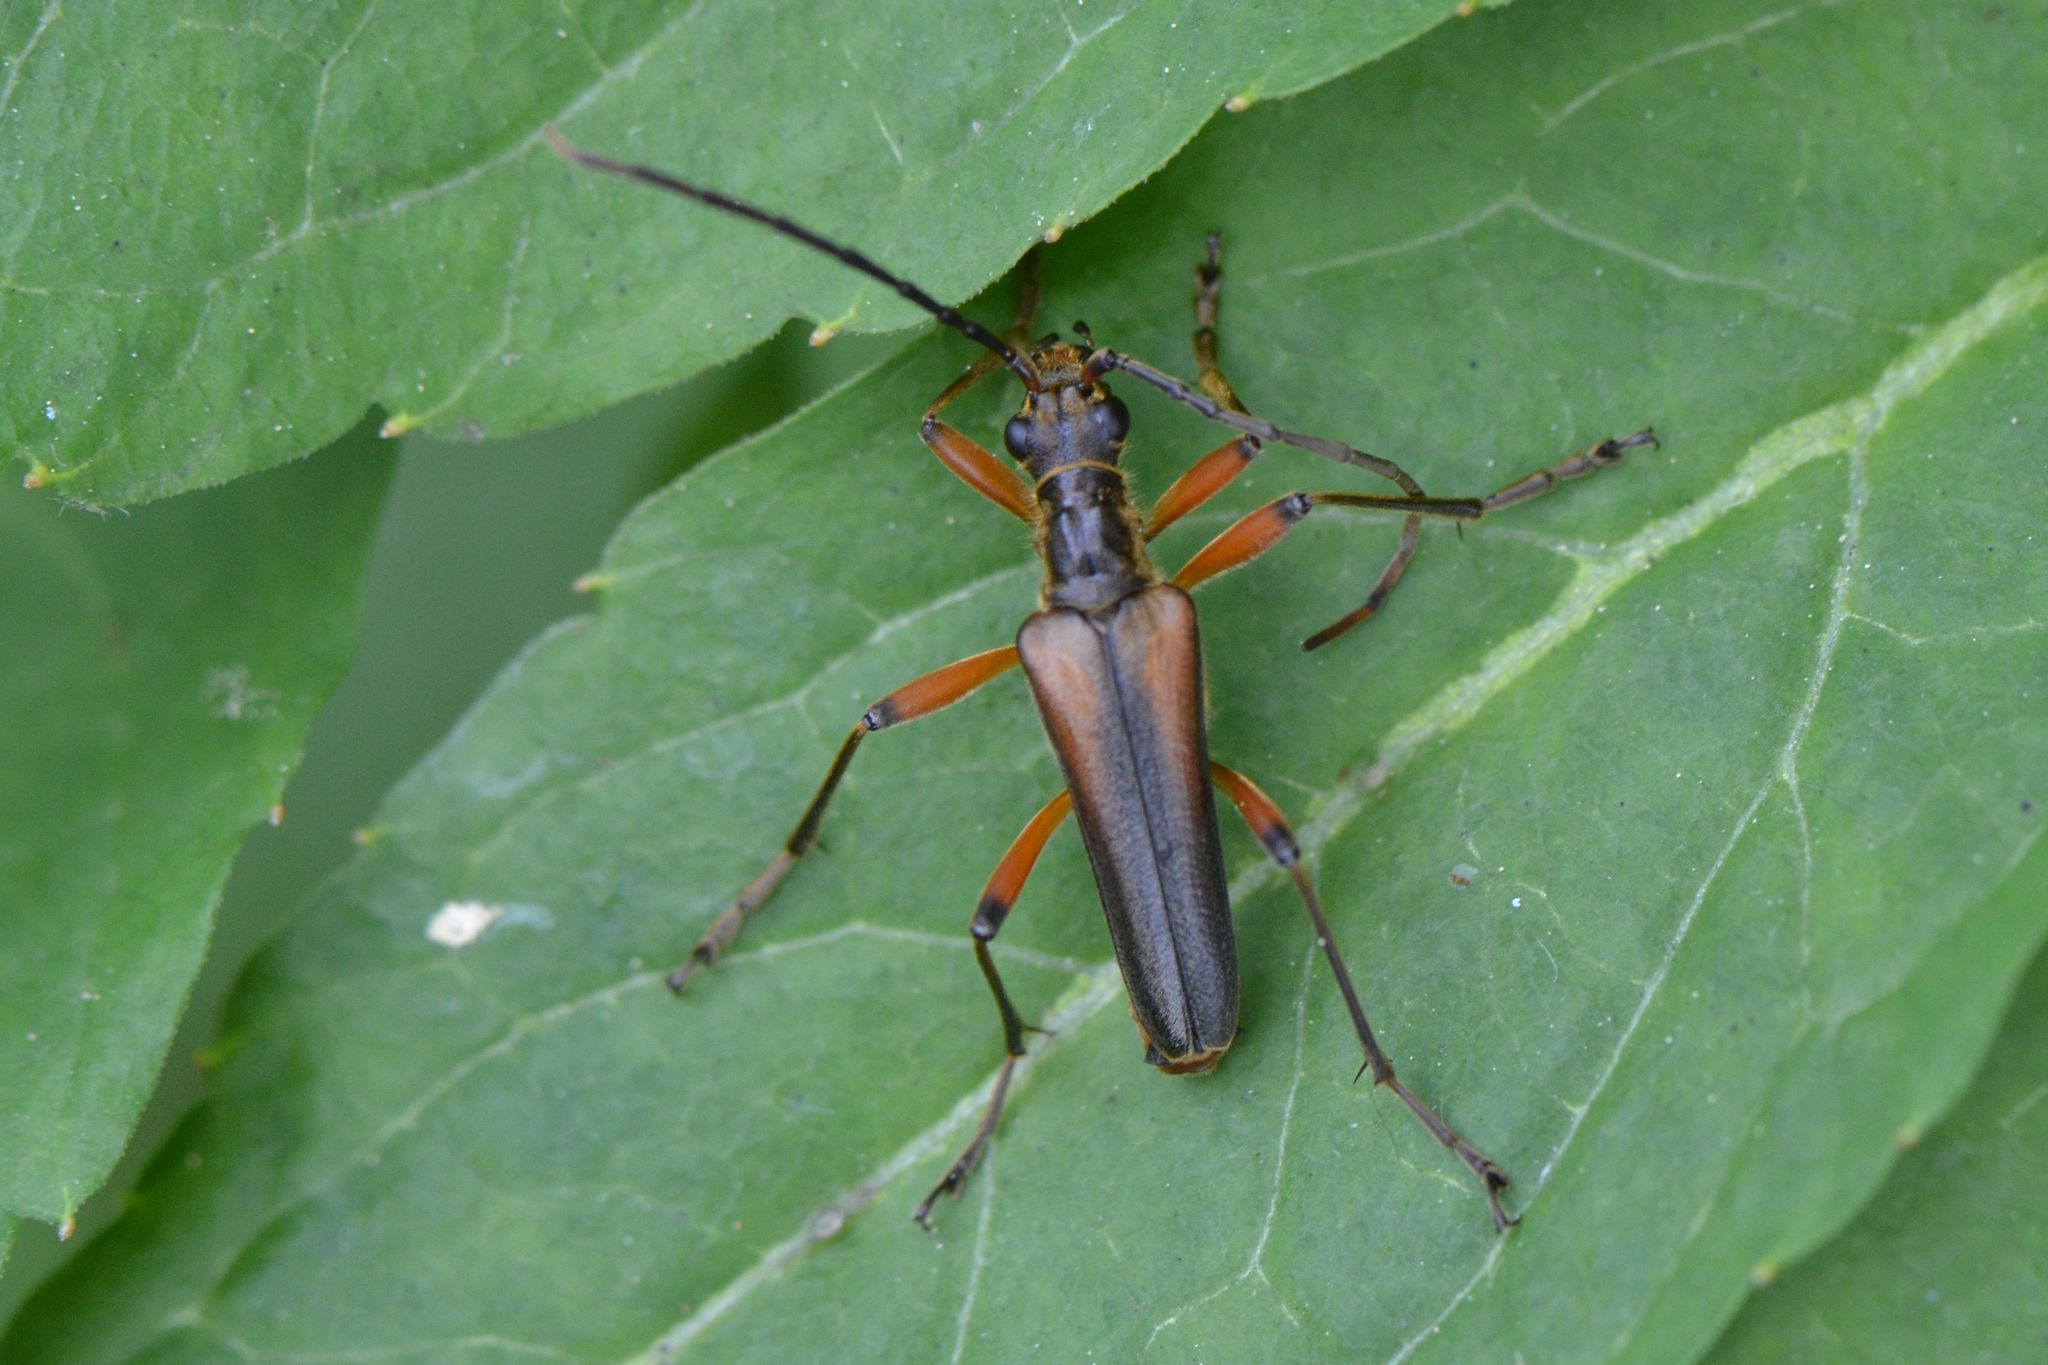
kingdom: Animalia
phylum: Arthropoda
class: Insecta
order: Coleoptera
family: Cerambycidae
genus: Stenocorus
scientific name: Stenocorus meridianus
